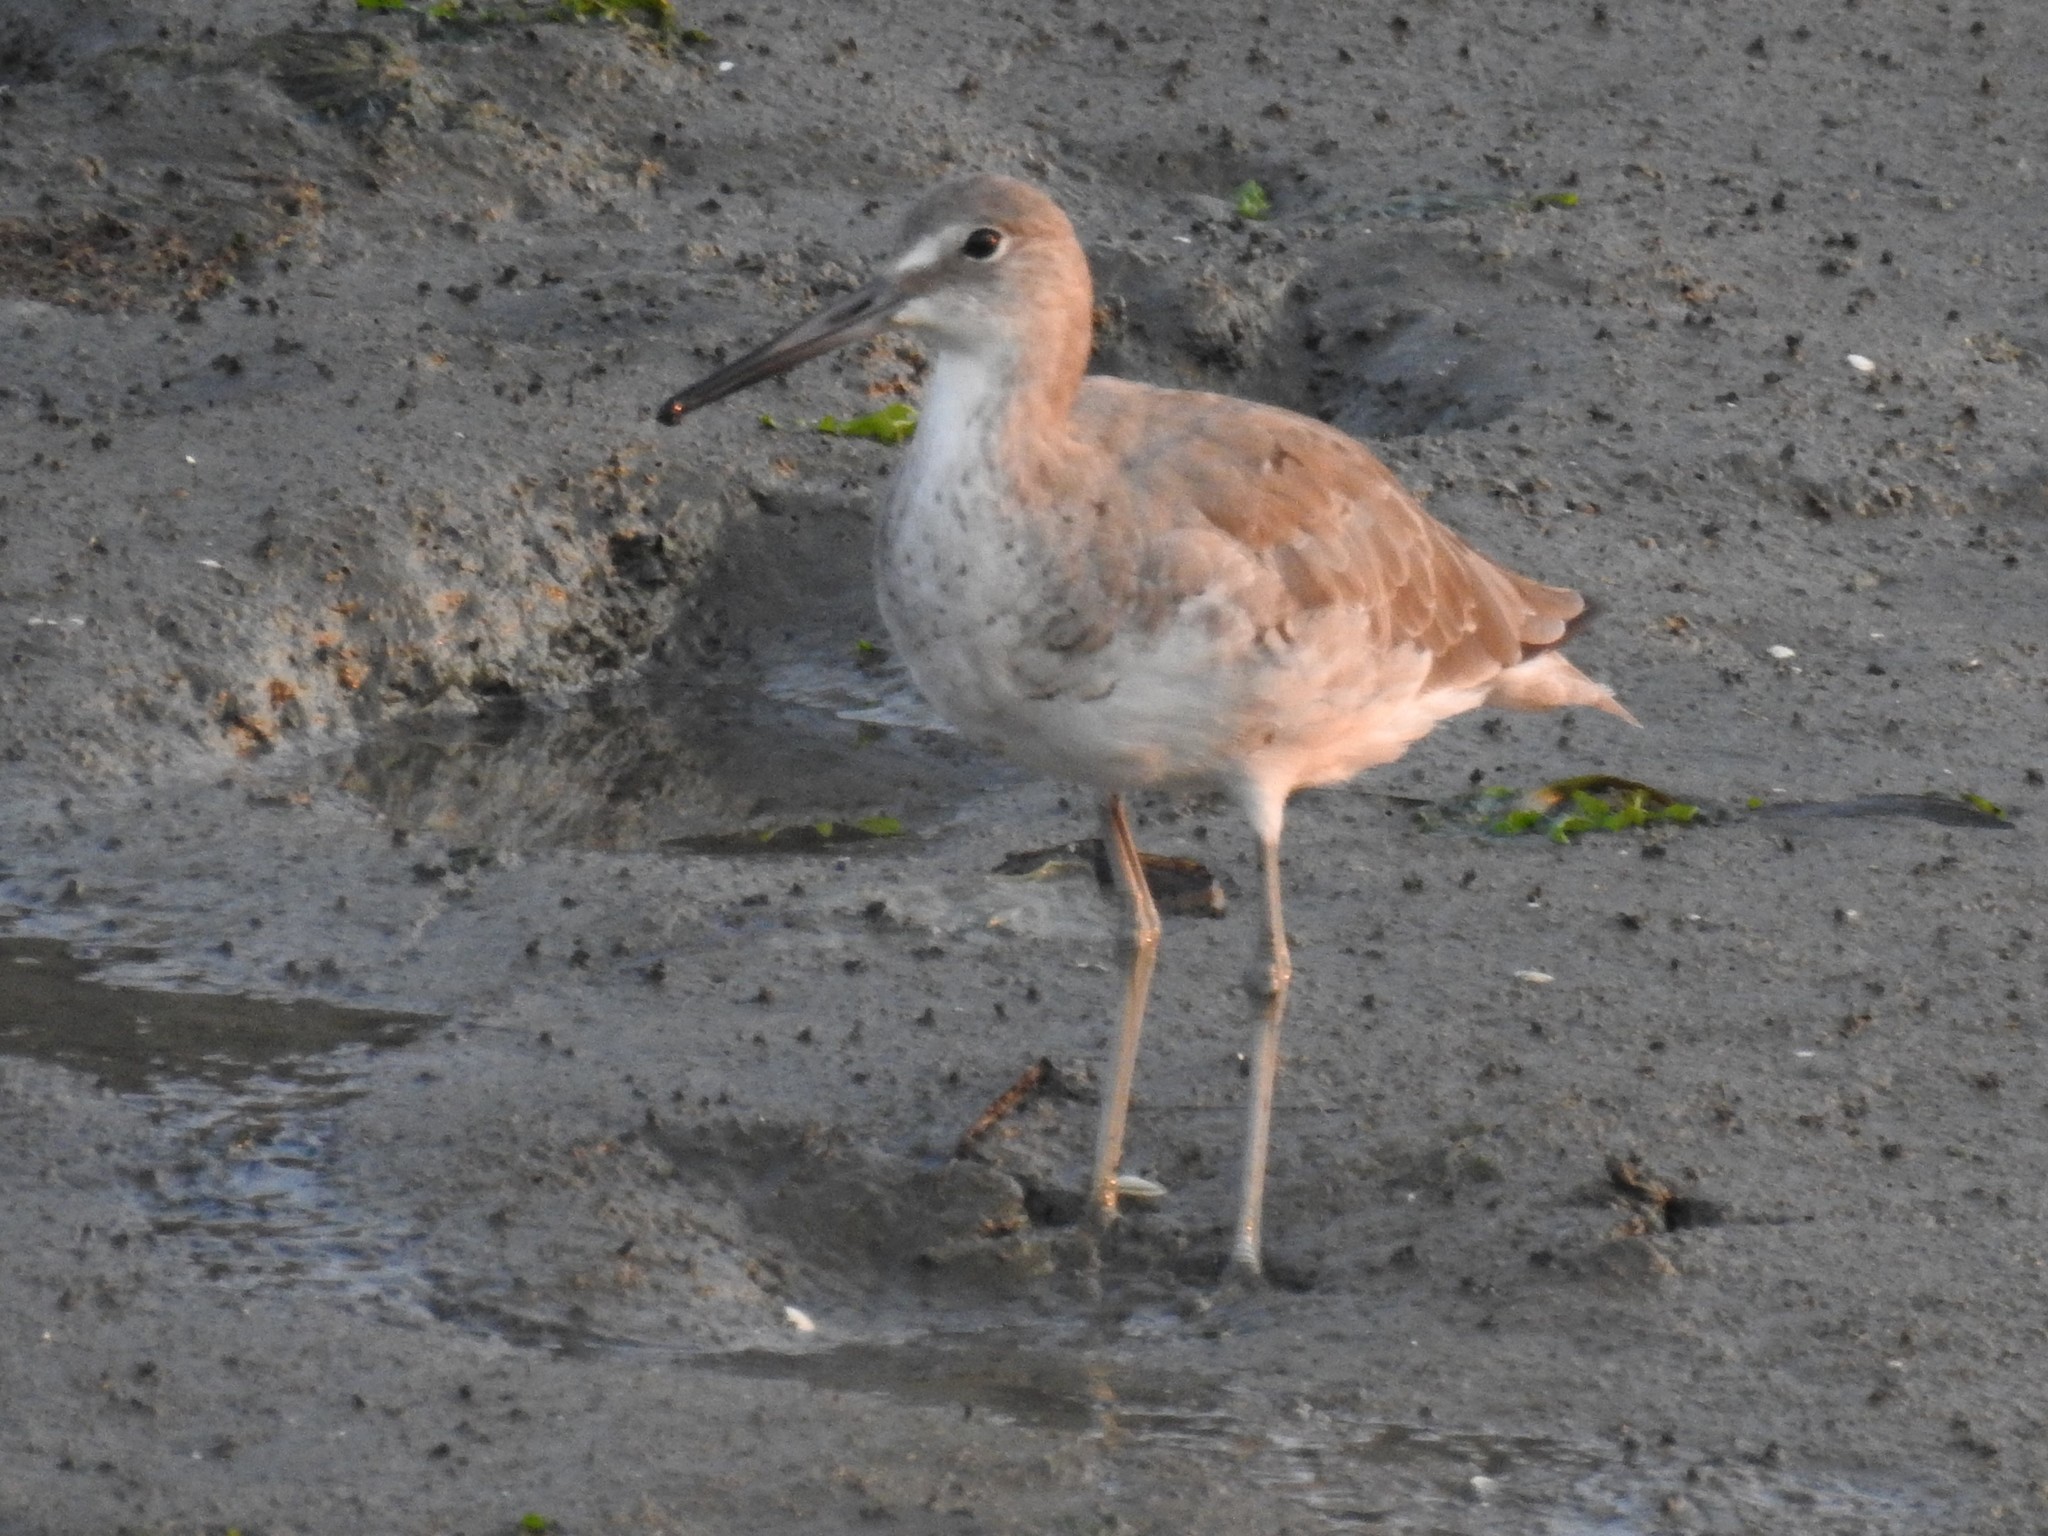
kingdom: Animalia
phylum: Chordata
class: Aves
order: Charadriiformes
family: Scolopacidae
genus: Tringa
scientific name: Tringa semipalmata
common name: Willet
